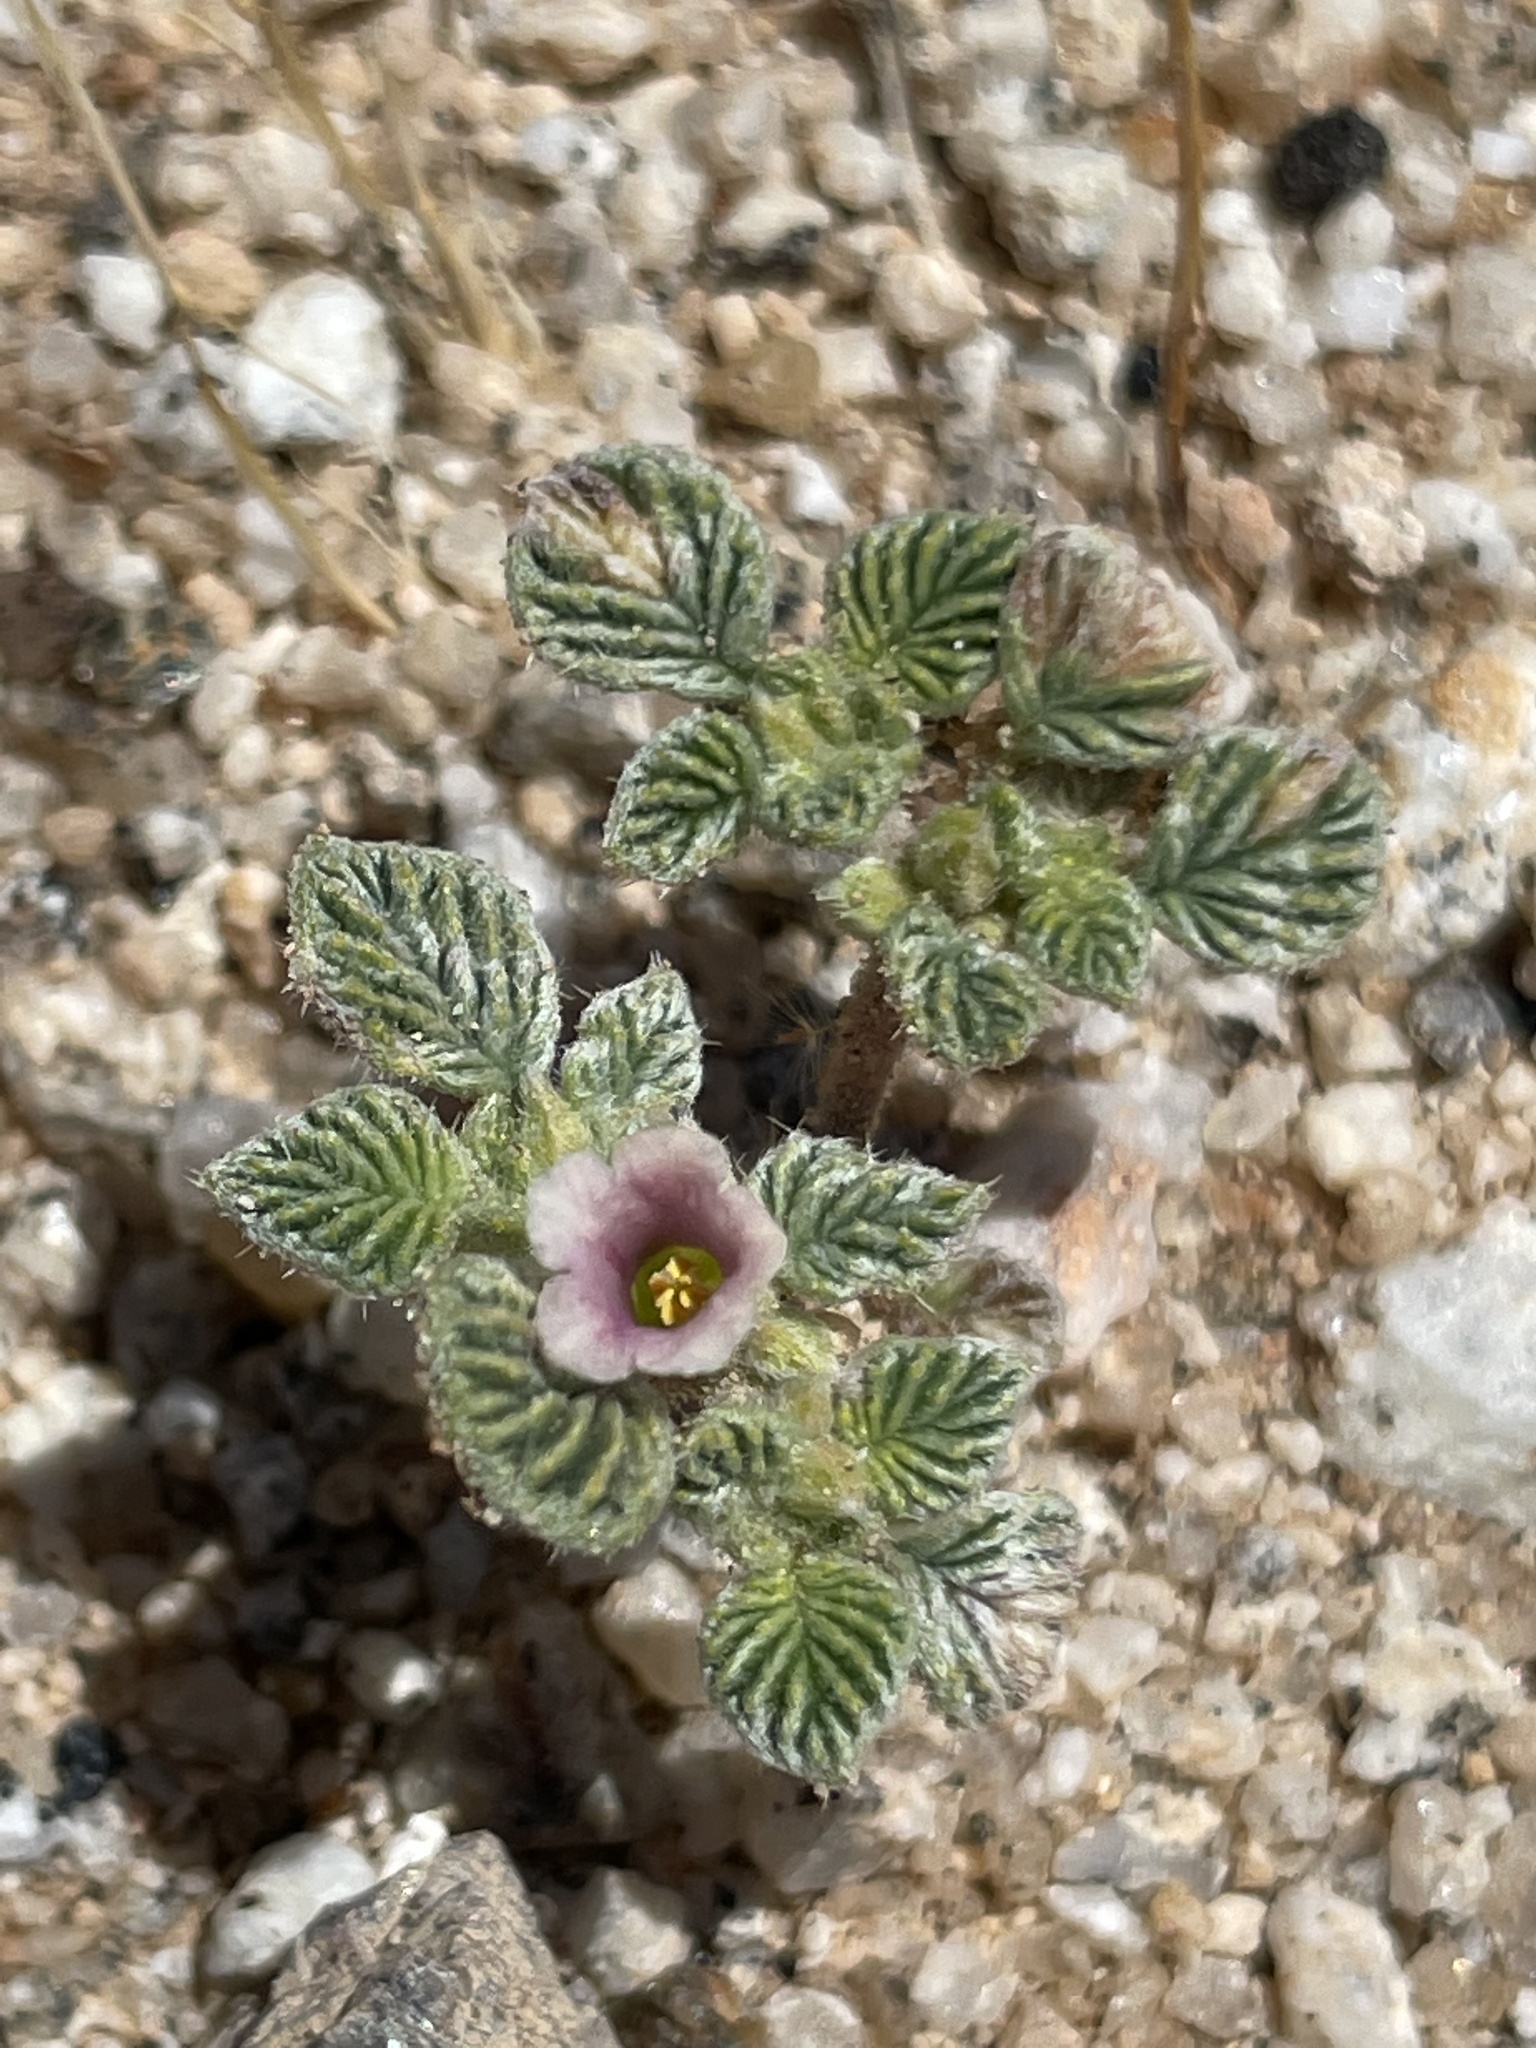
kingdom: Plantae
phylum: Tracheophyta
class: Magnoliopsida
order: Boraginales
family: Ehretiaceae
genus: Tiquilia
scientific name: Tiquilia plicata
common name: Fan-leaf tiquilia
